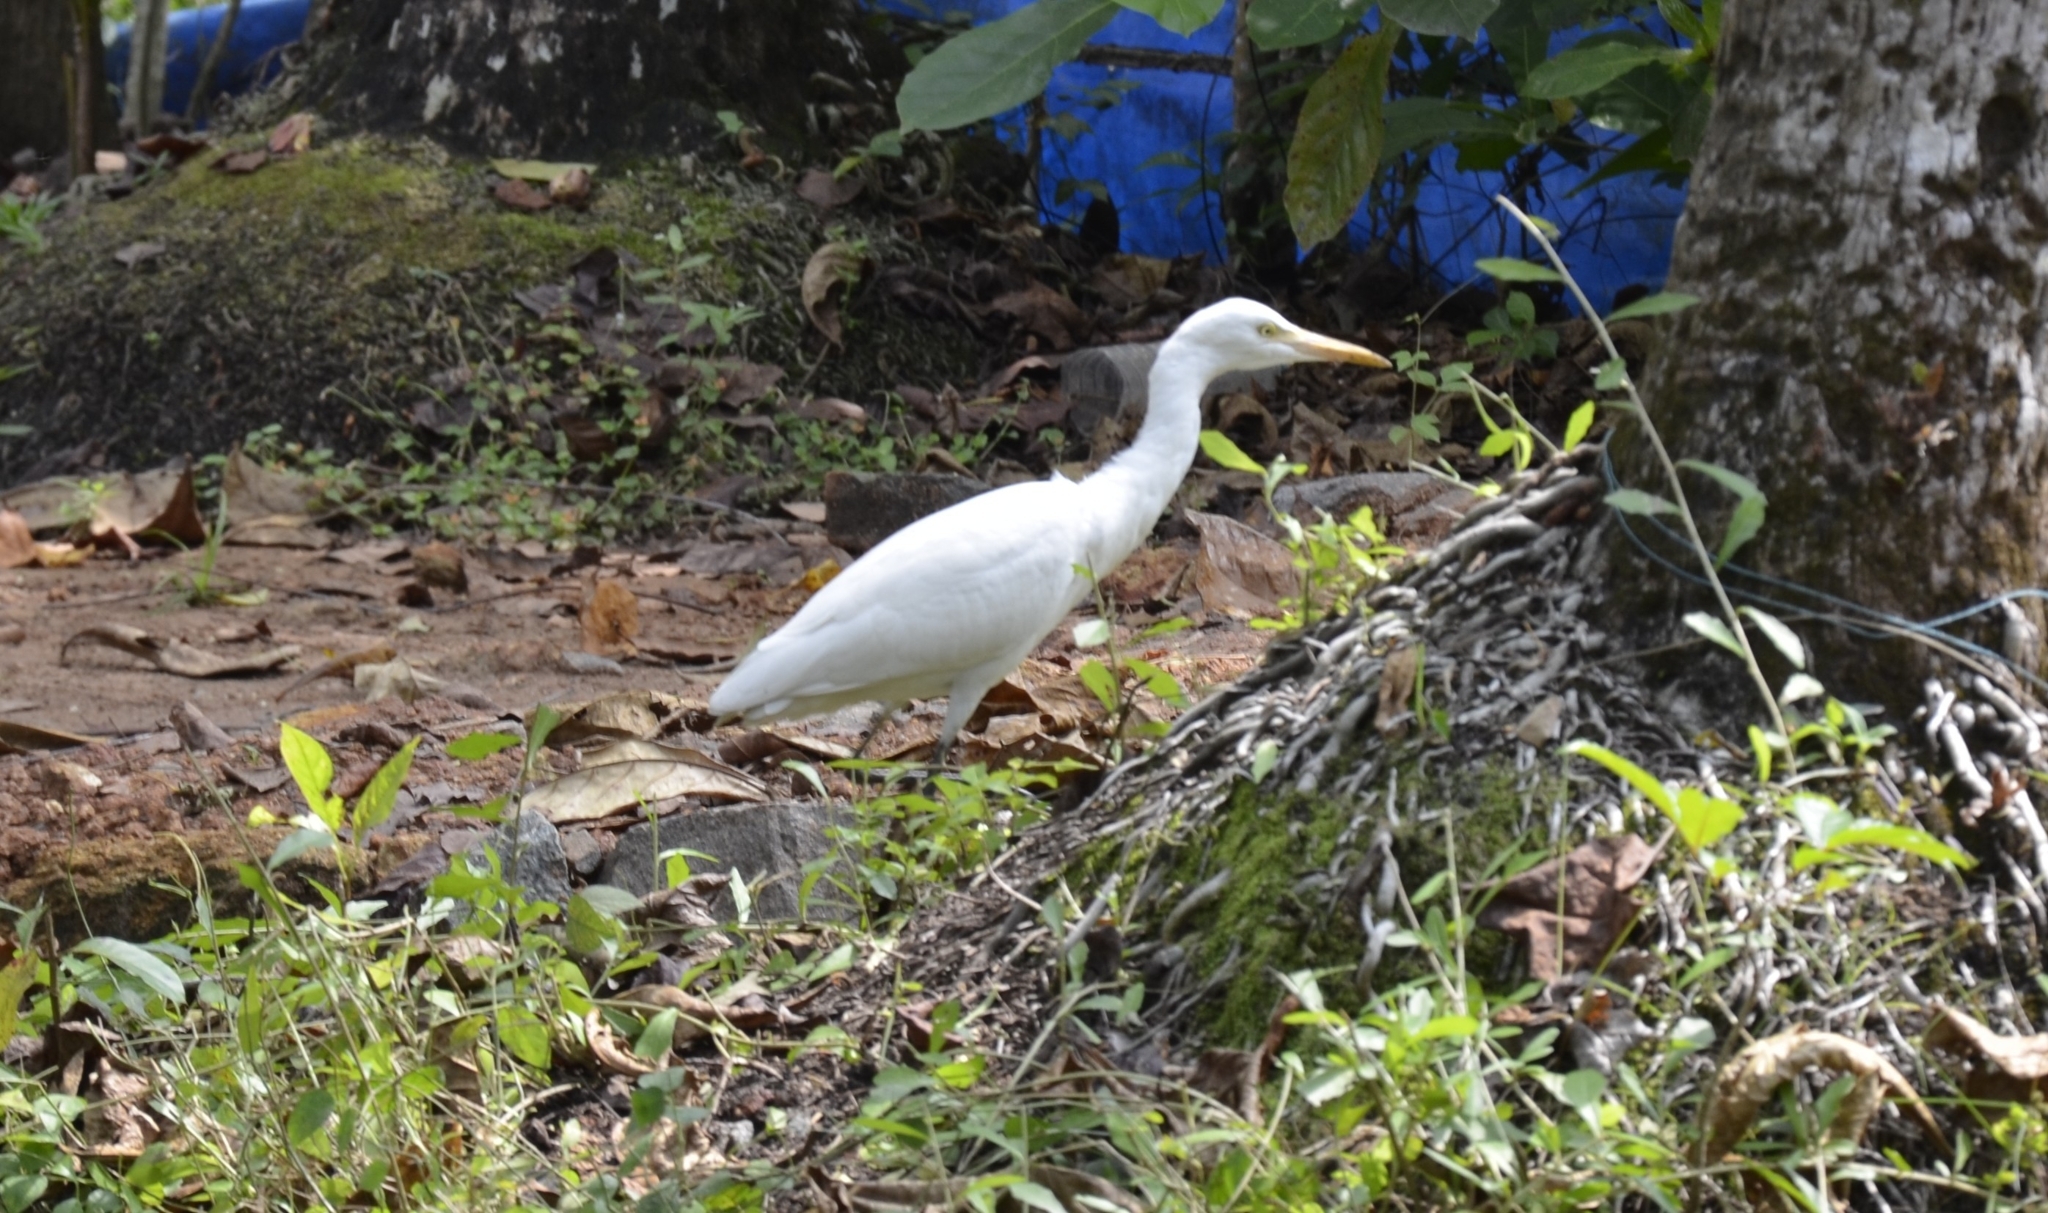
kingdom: Animalia
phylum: Chordata
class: Aves
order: Pelecaniformes
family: Ardeidae
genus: Bubulcus
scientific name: Bubulcus coromandus
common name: Eastern cattle egret
